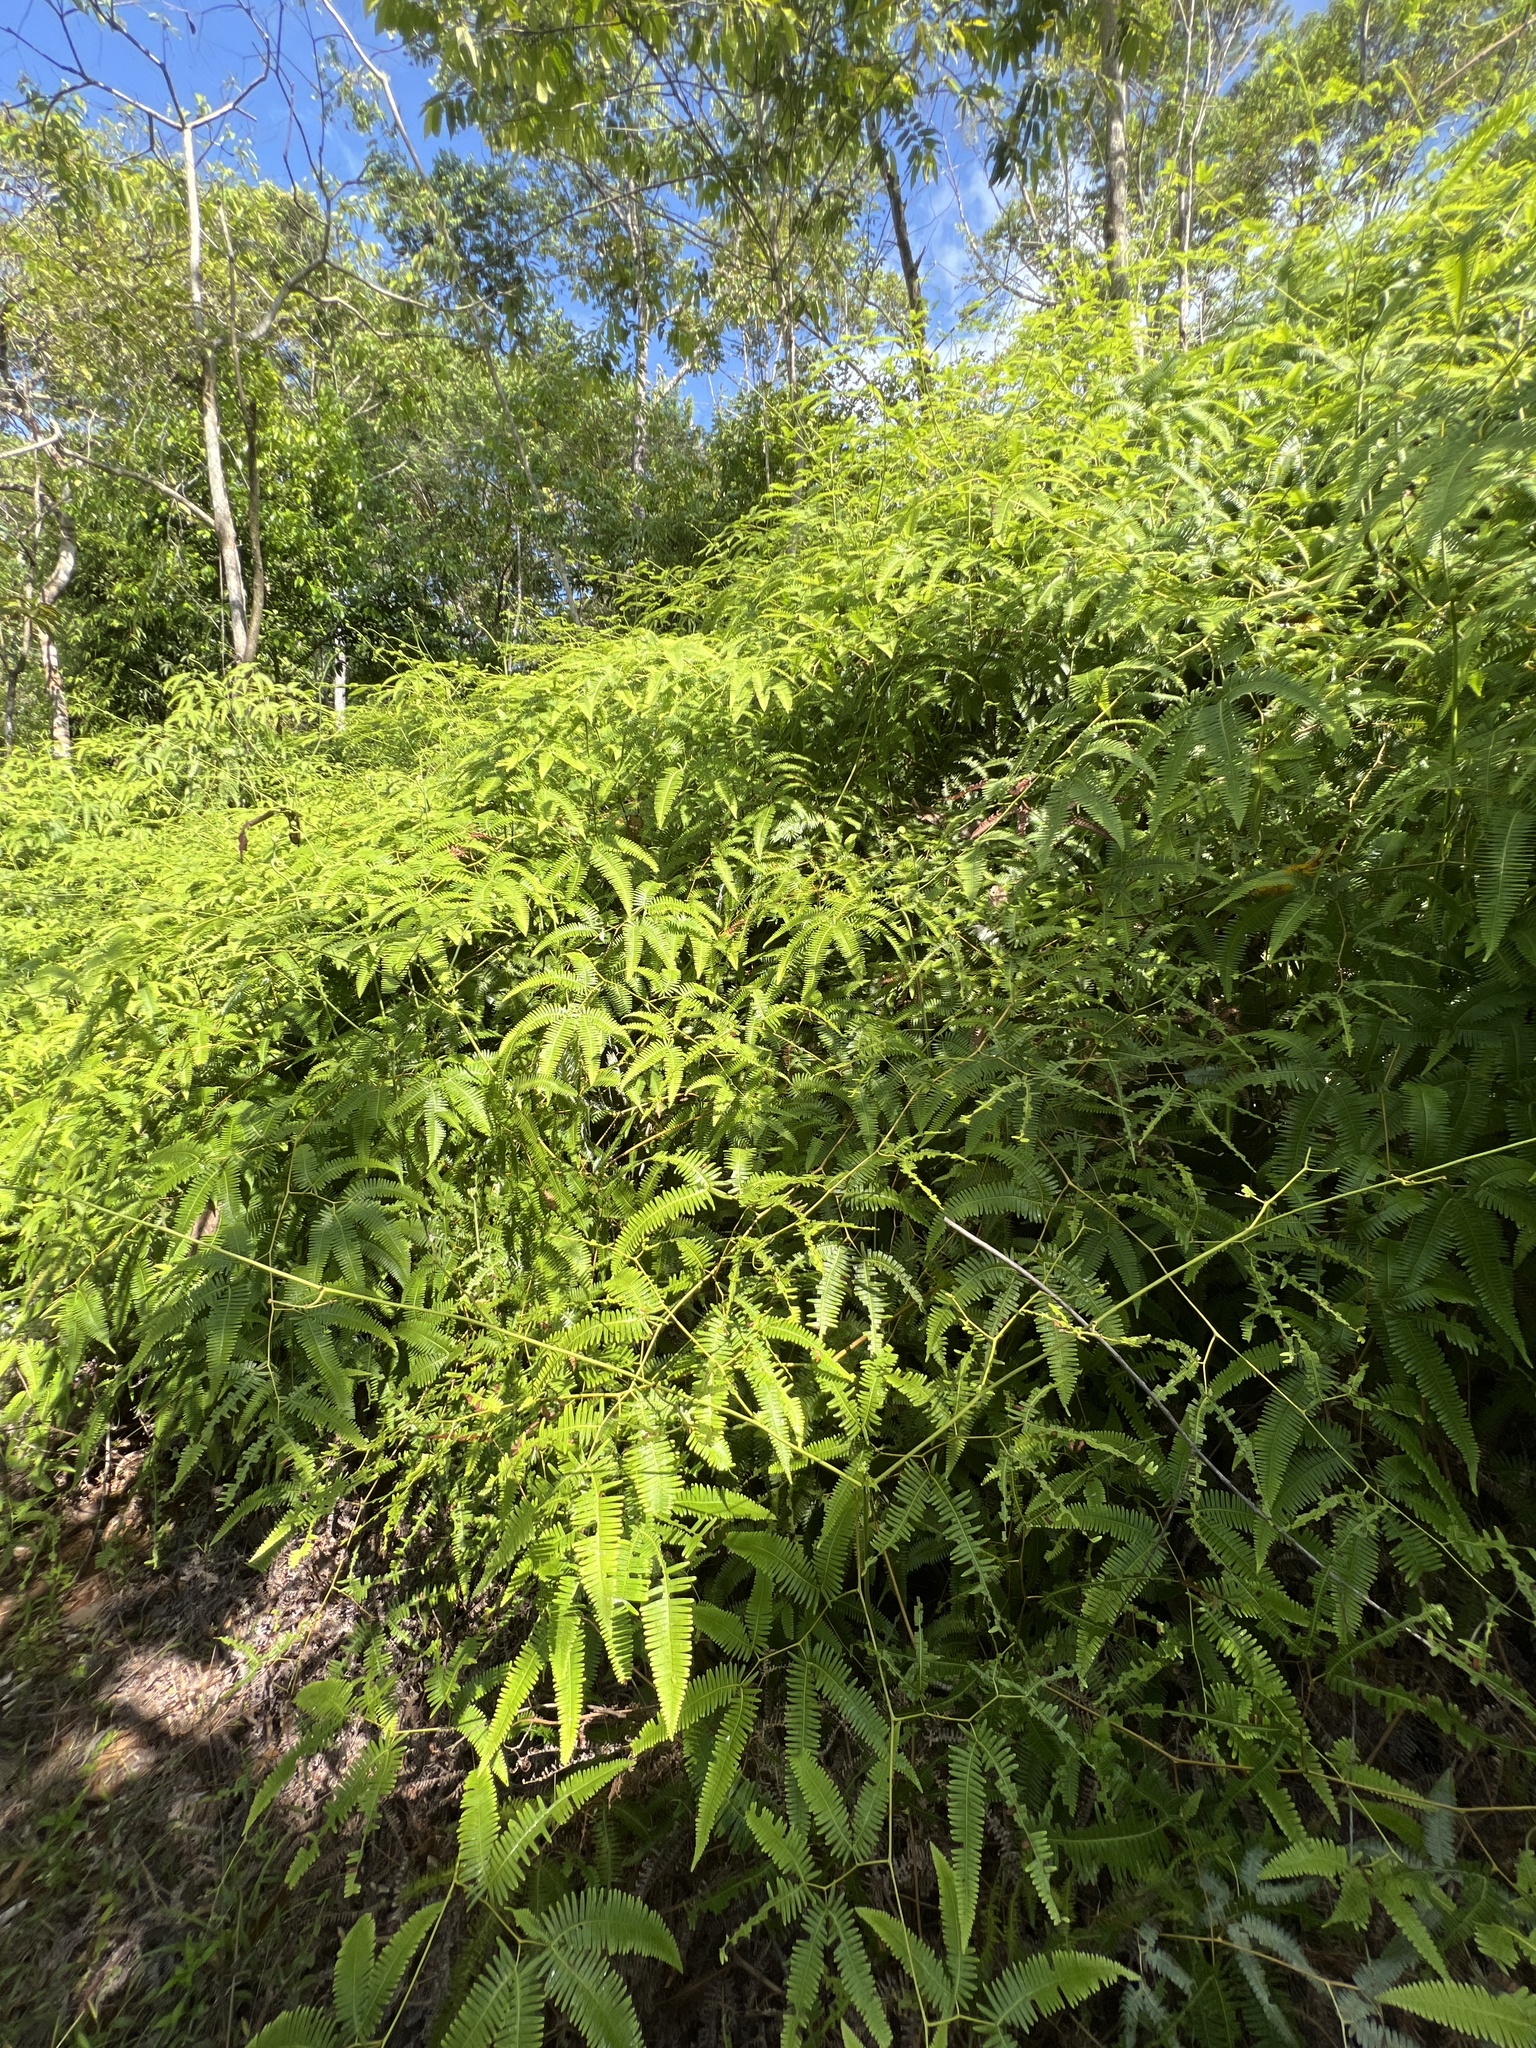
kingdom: Plantae
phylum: Tracheophyta
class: Polypodiopsida
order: Gleicheniales
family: Gleicheniaceae
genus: Gleichenella
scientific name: Gleichenella pectinata
